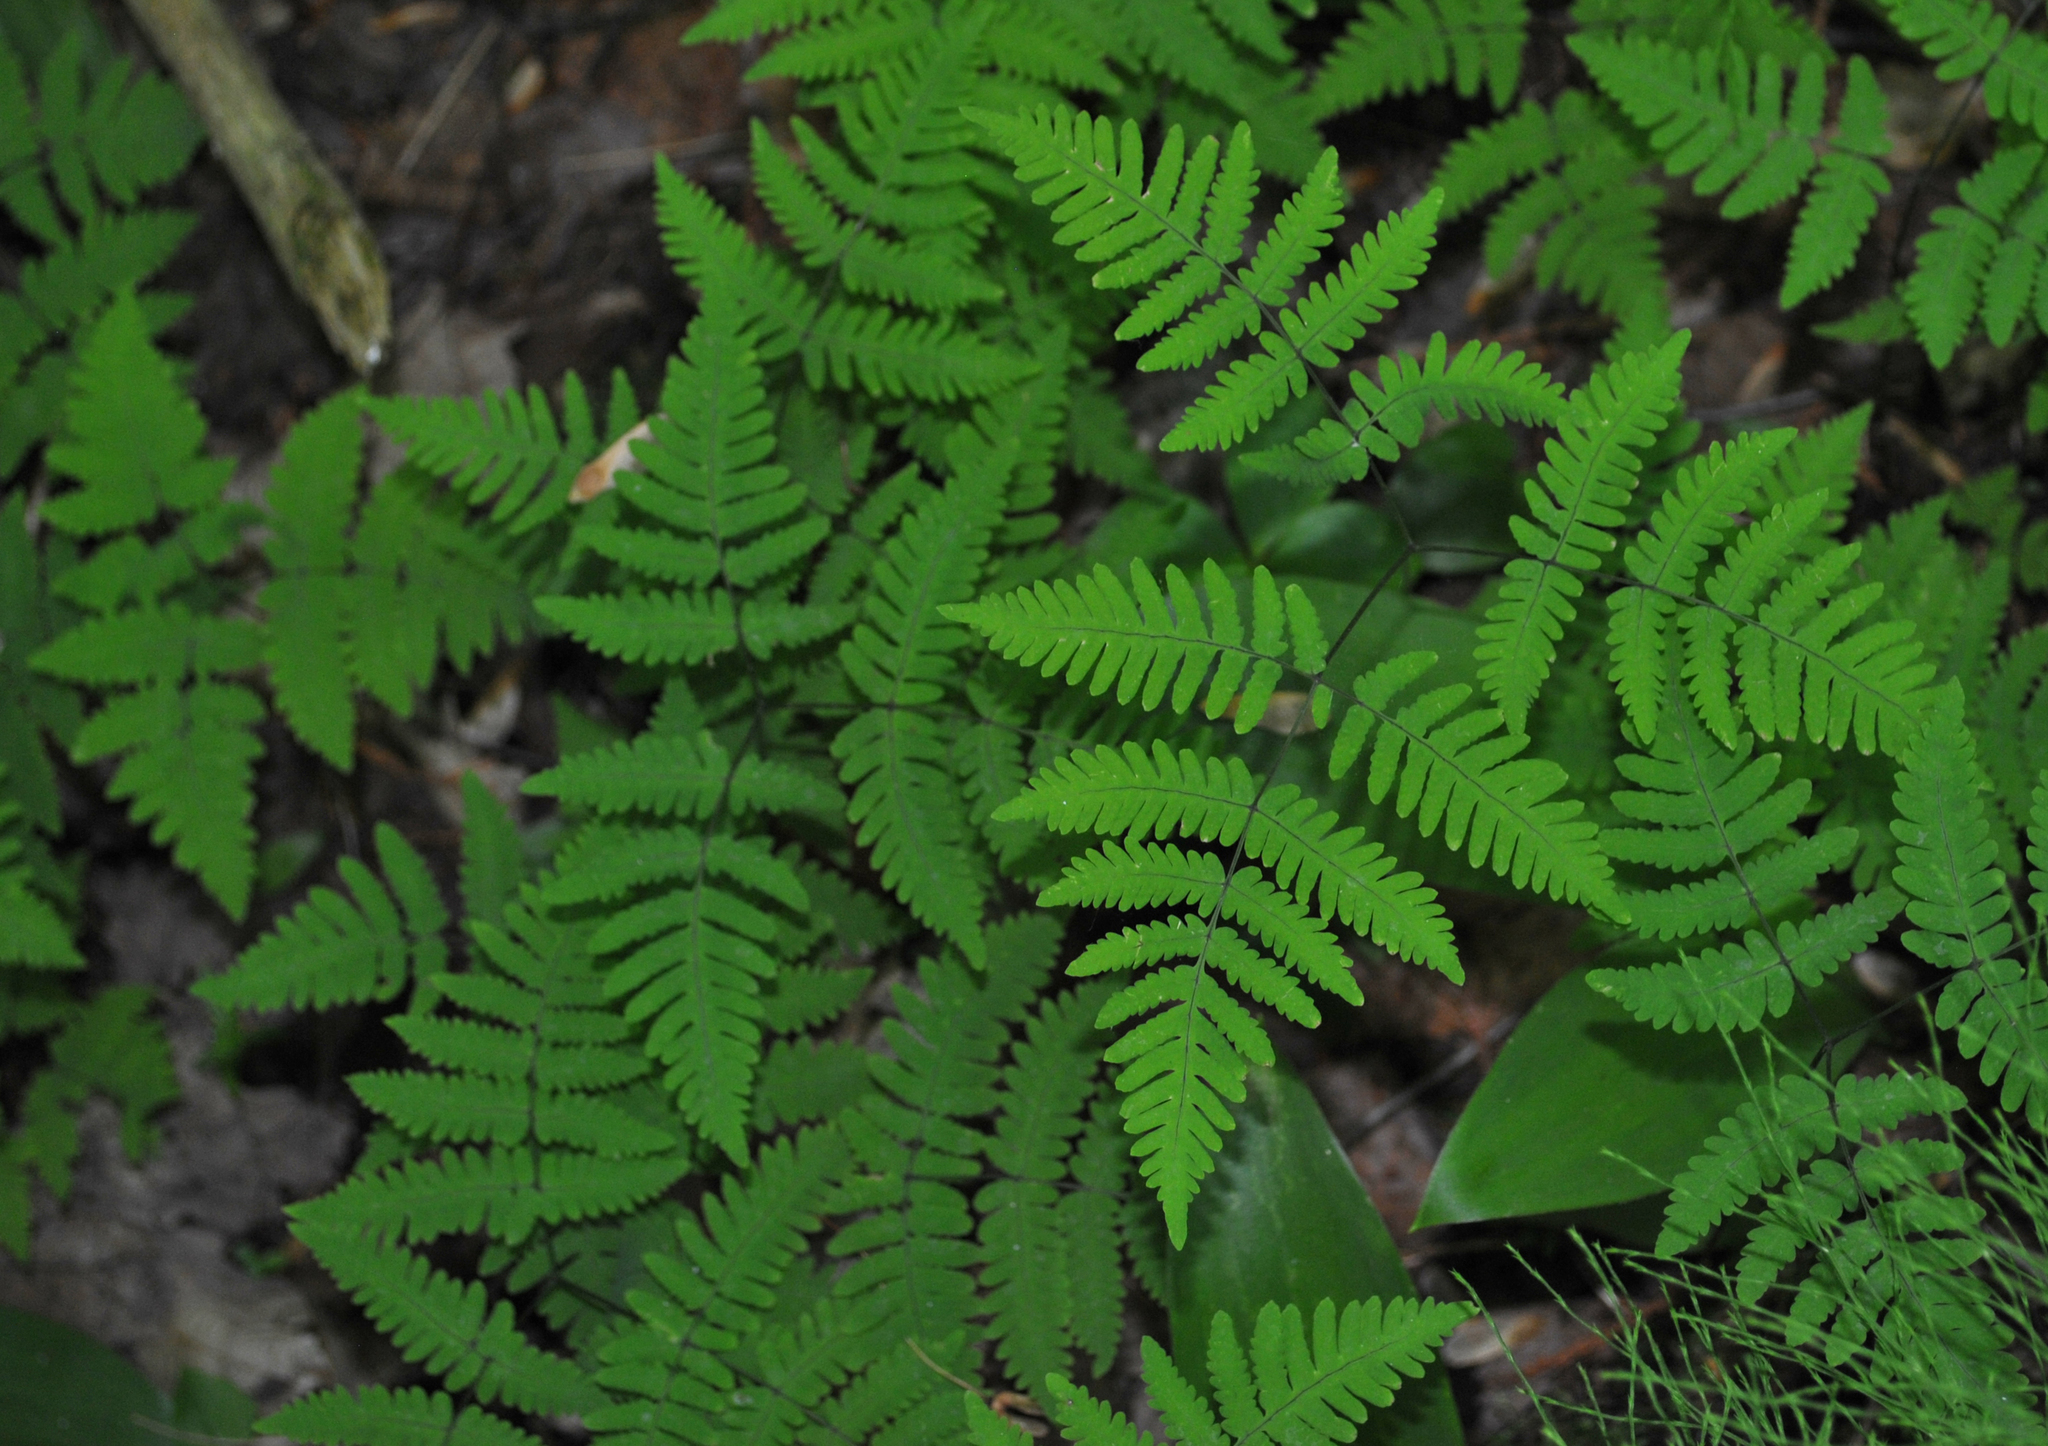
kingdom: Plantae
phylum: Tracheophyta
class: Polypodiopsida
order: Polypodiales
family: Cystopteridaceae
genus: Gymnocarpium
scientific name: Gymnocarpium dryopteris
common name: Oak fern
